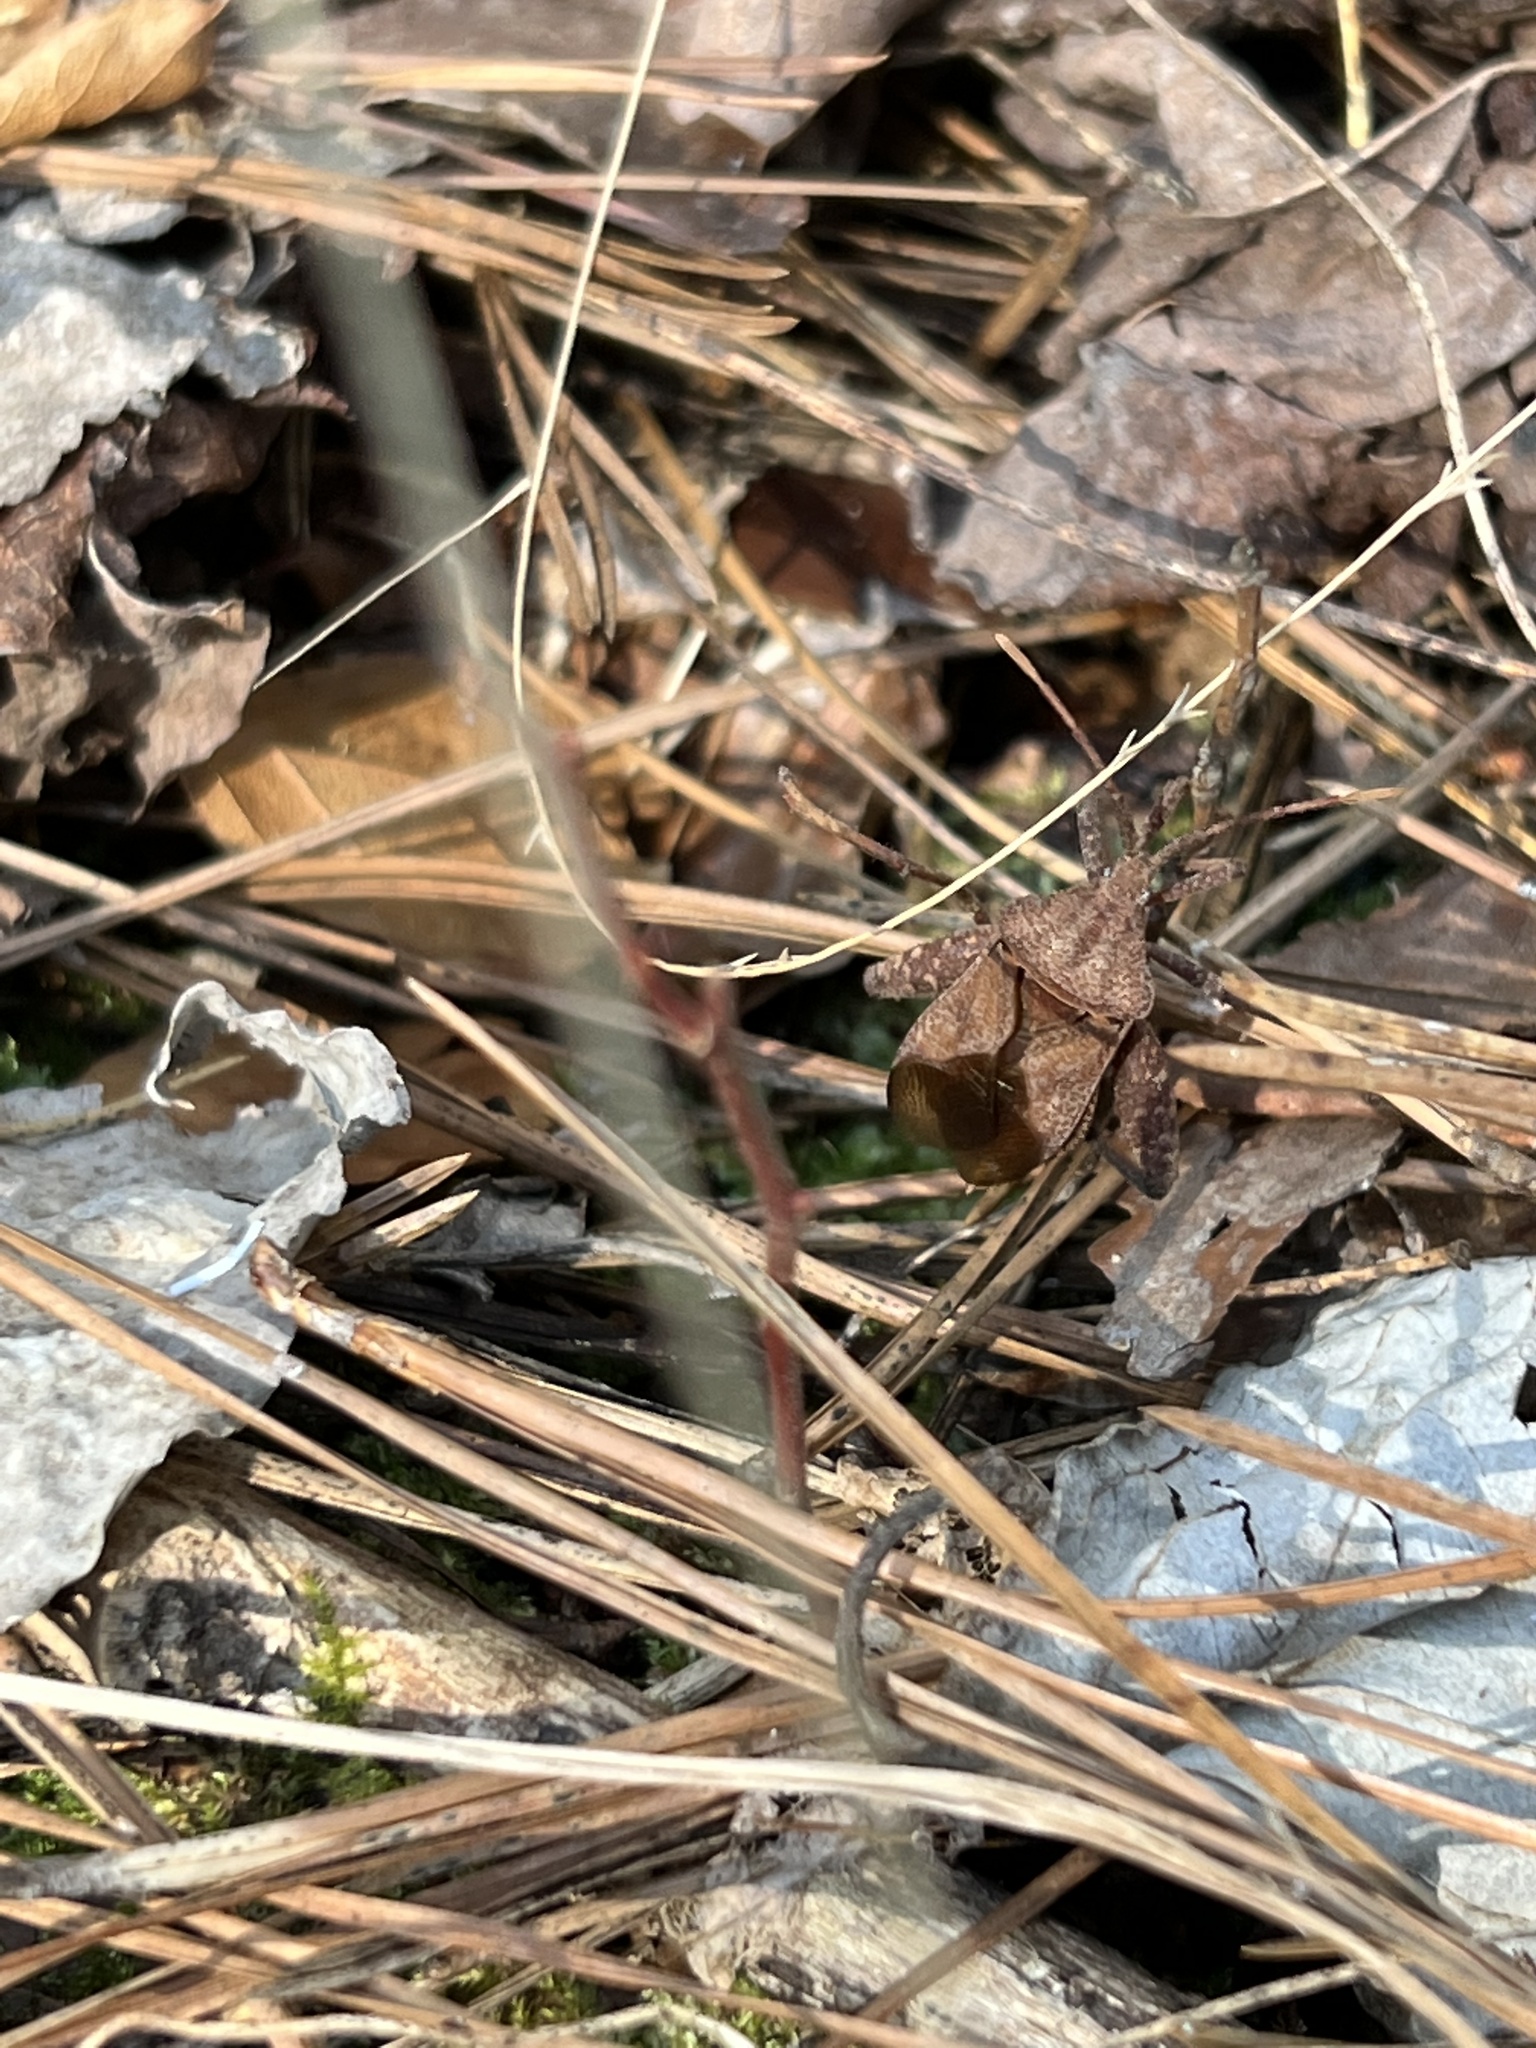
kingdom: Animalia
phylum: Arthropoda
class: Insecta
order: Hemiptera
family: Coreidae
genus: Piezogaster
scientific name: Piezogaster calcarator
